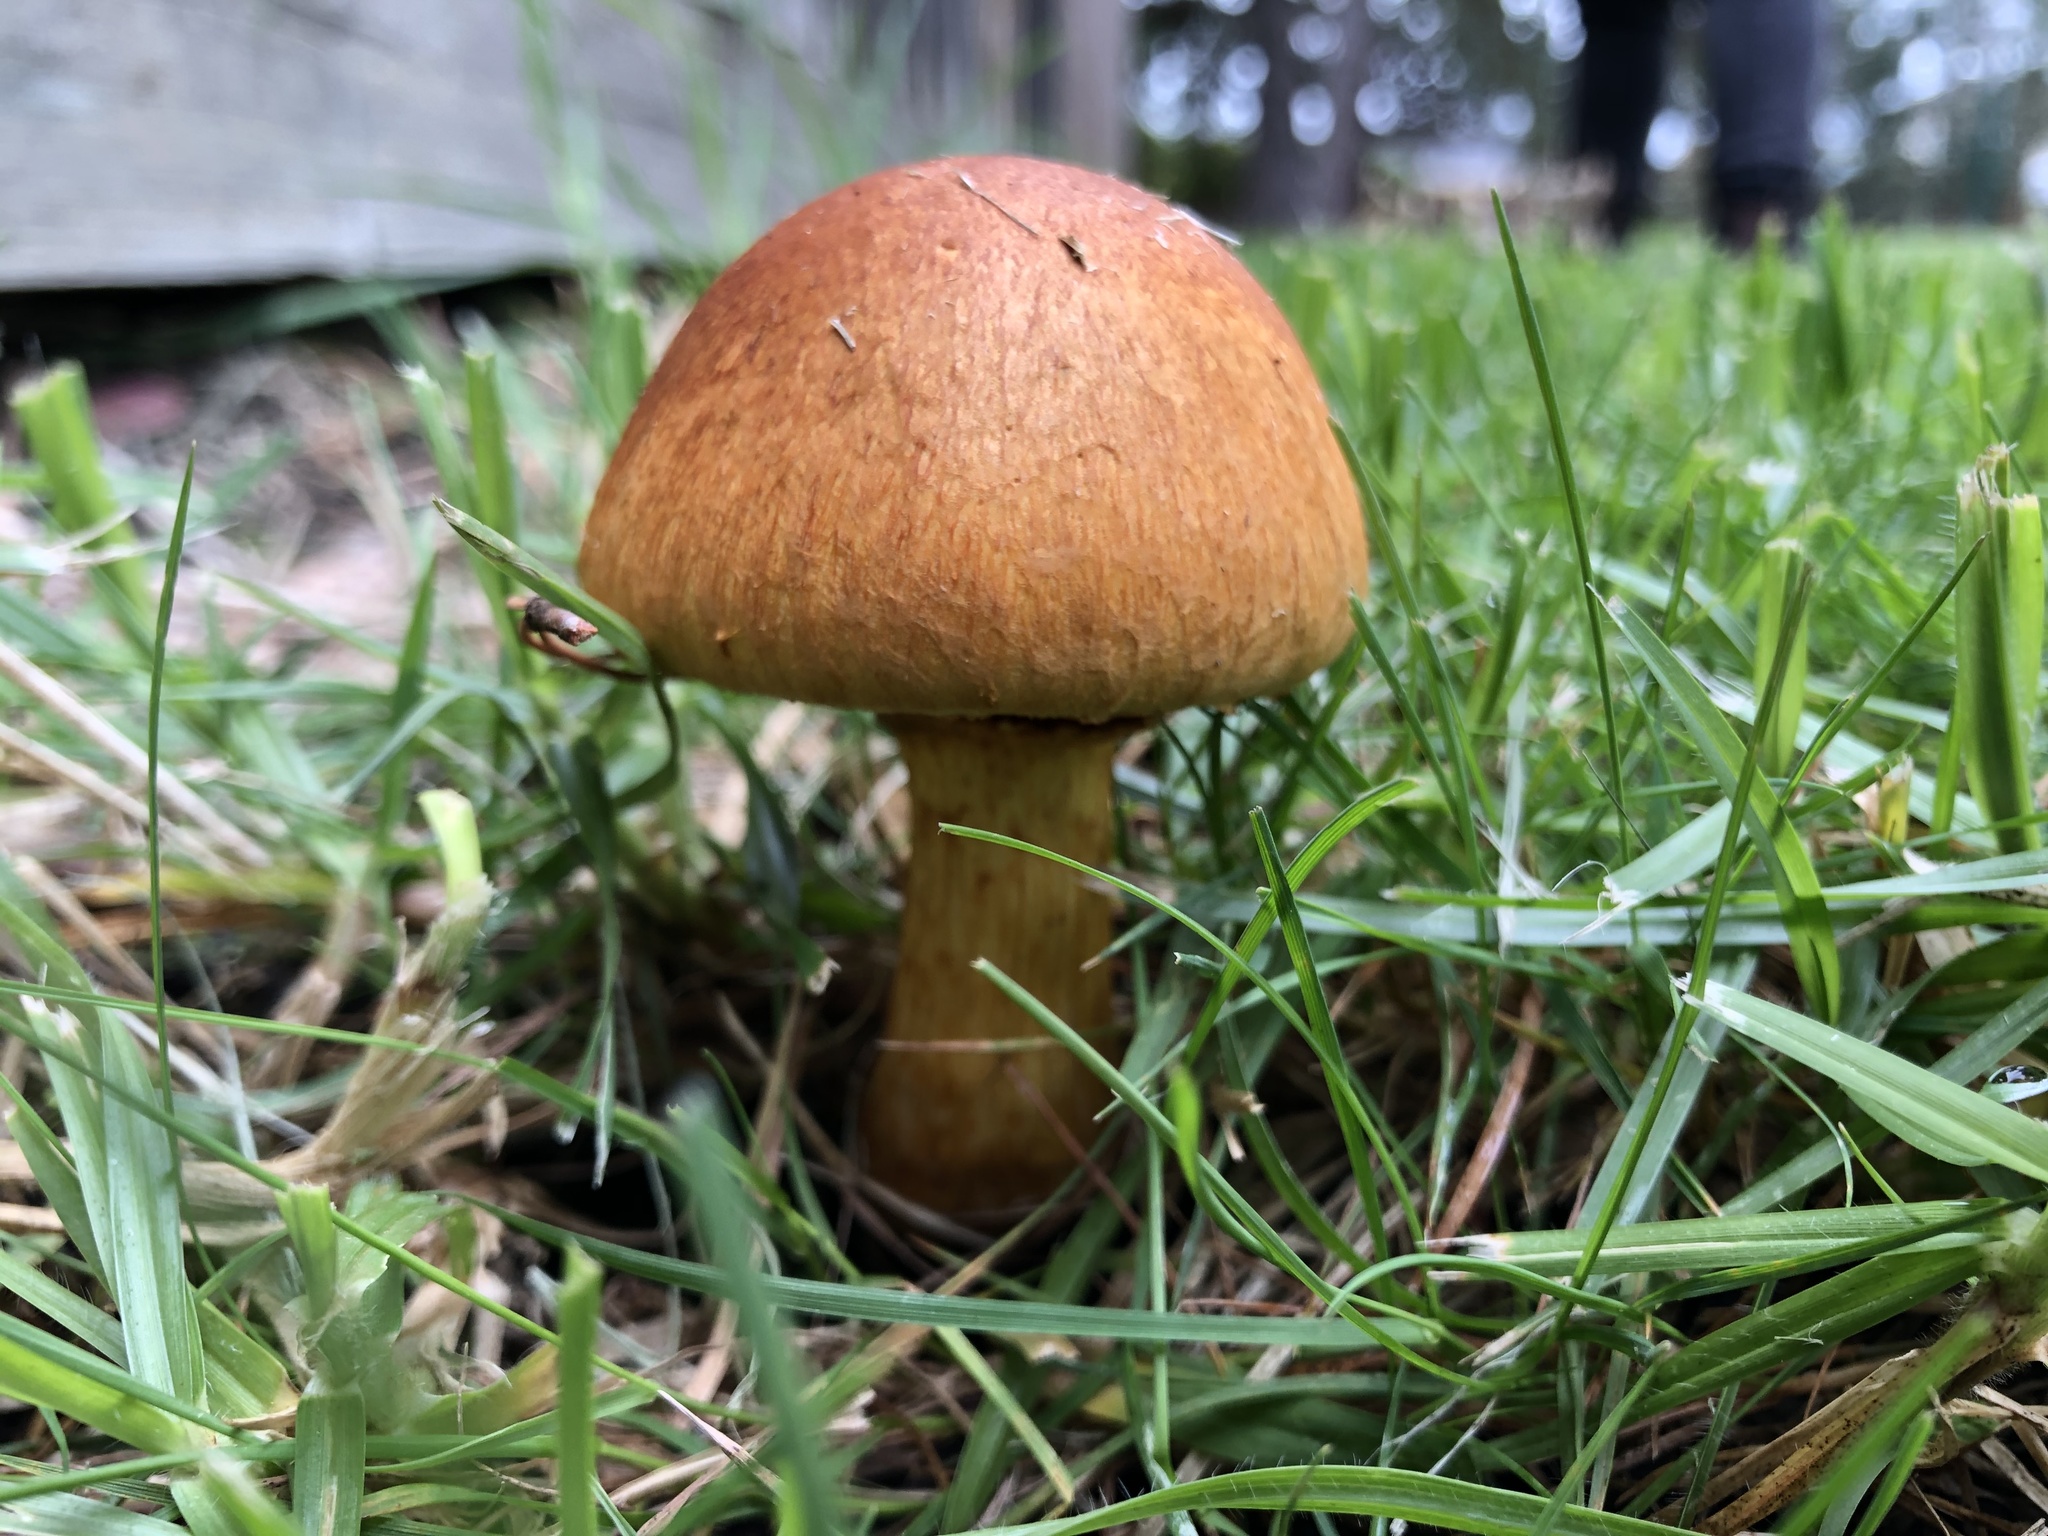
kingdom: Fungi
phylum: Basidiomycota
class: Agaricomycetes
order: Agaricales
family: Hymenogastraceae
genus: Gymnopilus
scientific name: Gymnopilus junonius
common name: Spectacular rustgill
